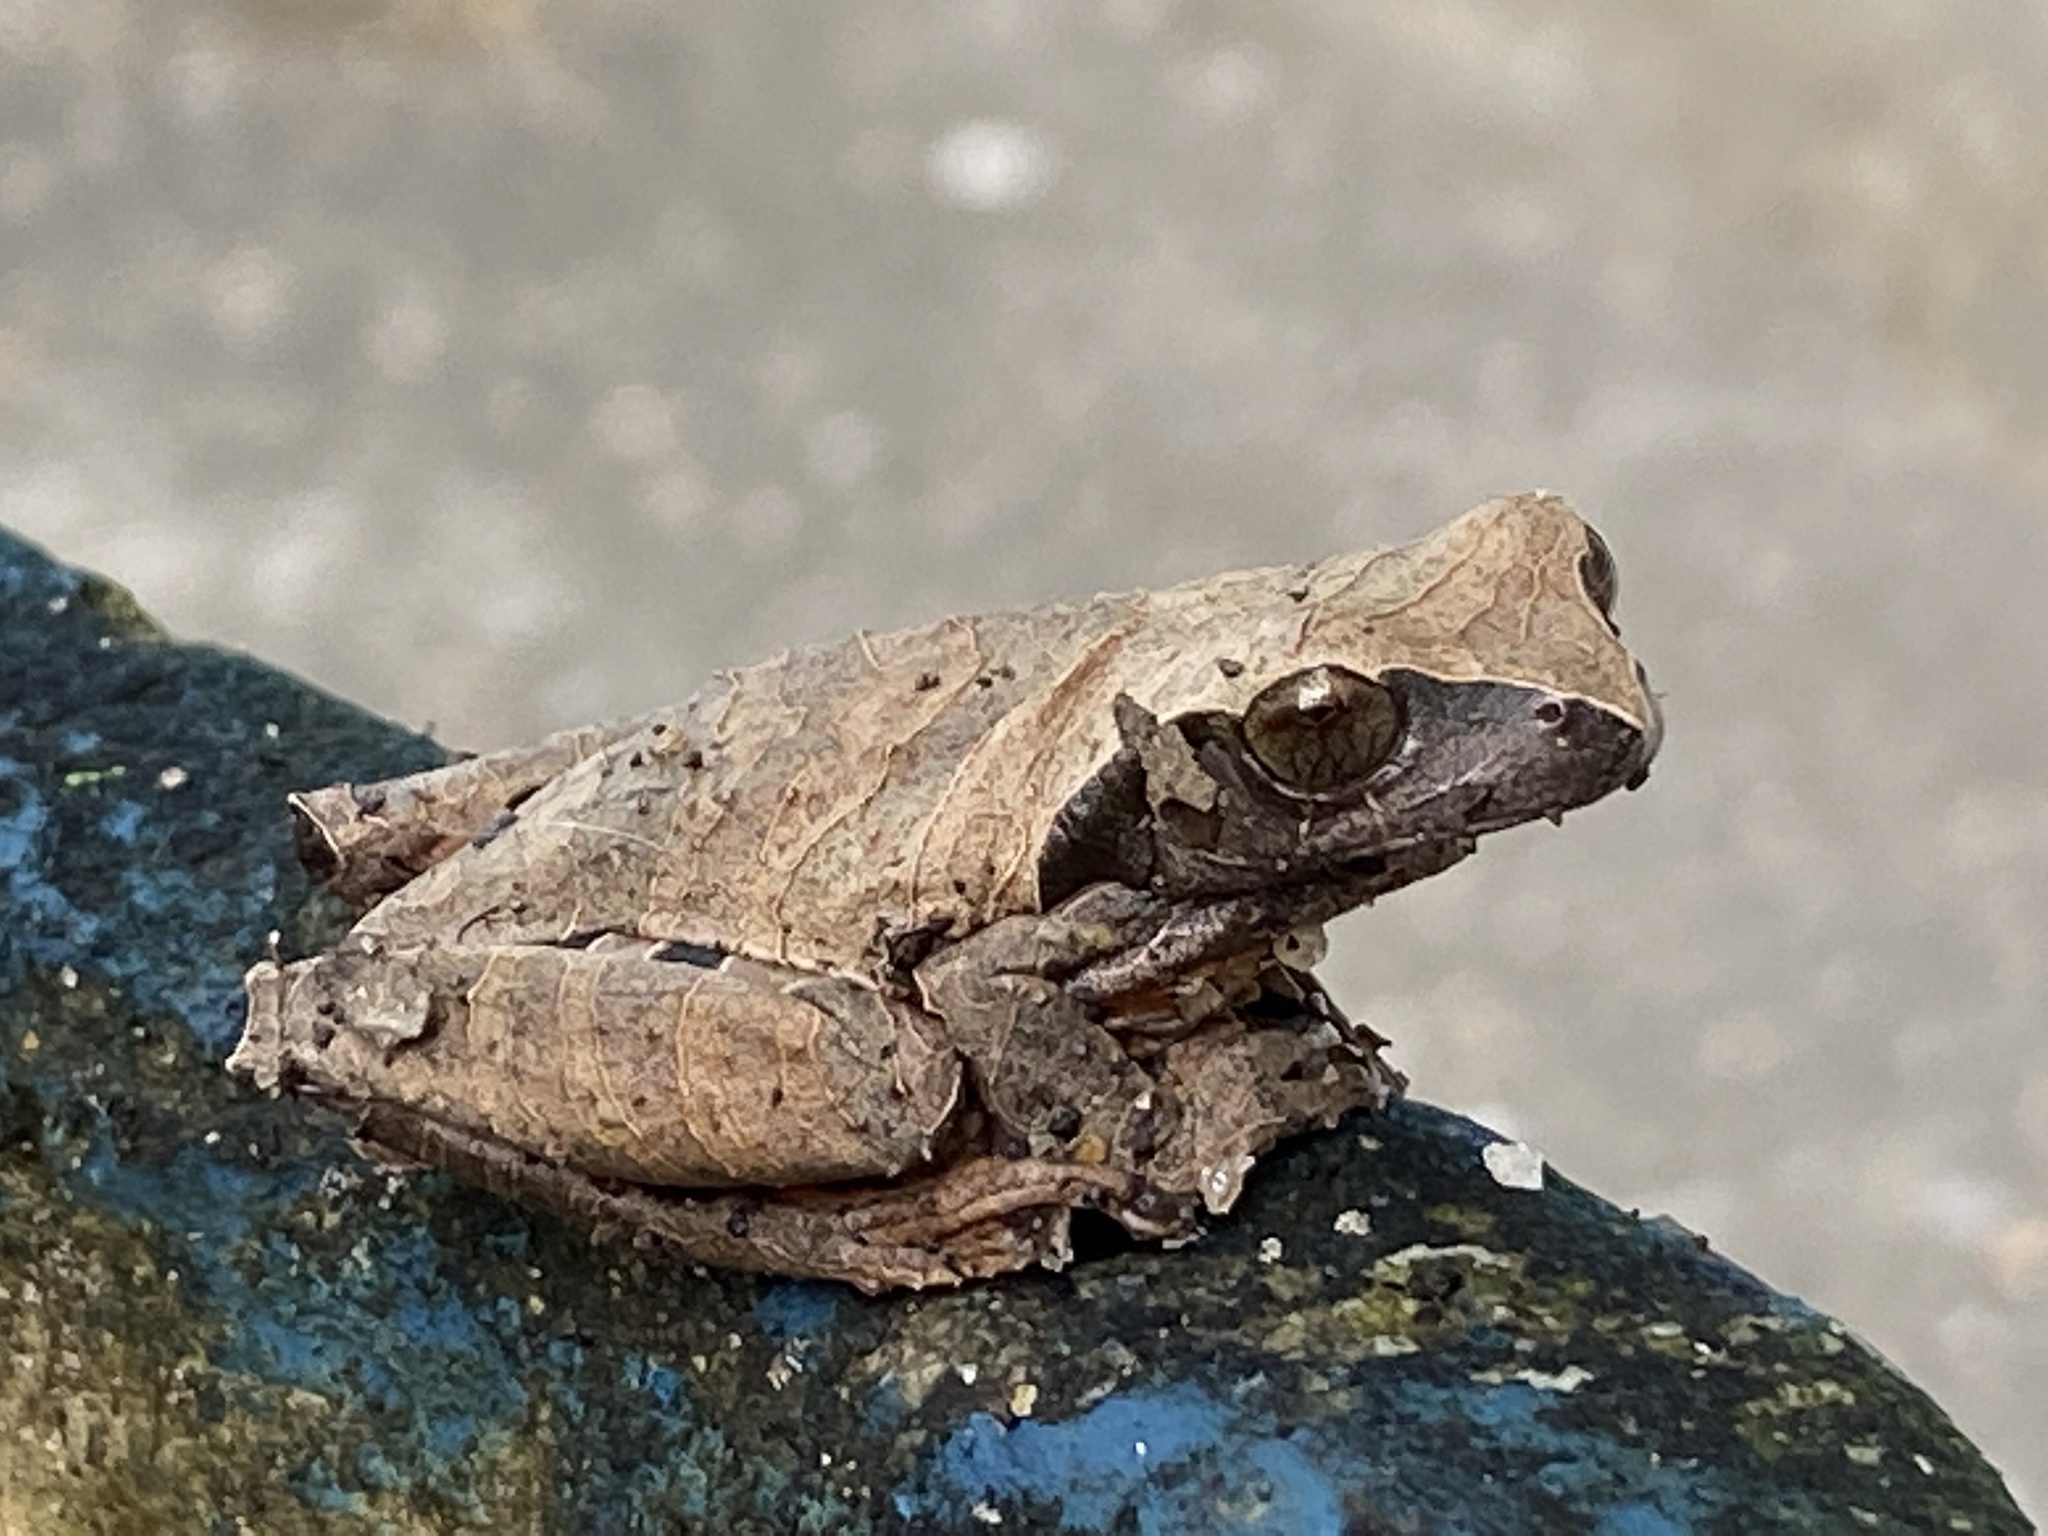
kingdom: Animalia
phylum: Chordata
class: Amphibia
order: Anura
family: Hylidae
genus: Dendropsophus
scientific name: Dendropsophus anceps
